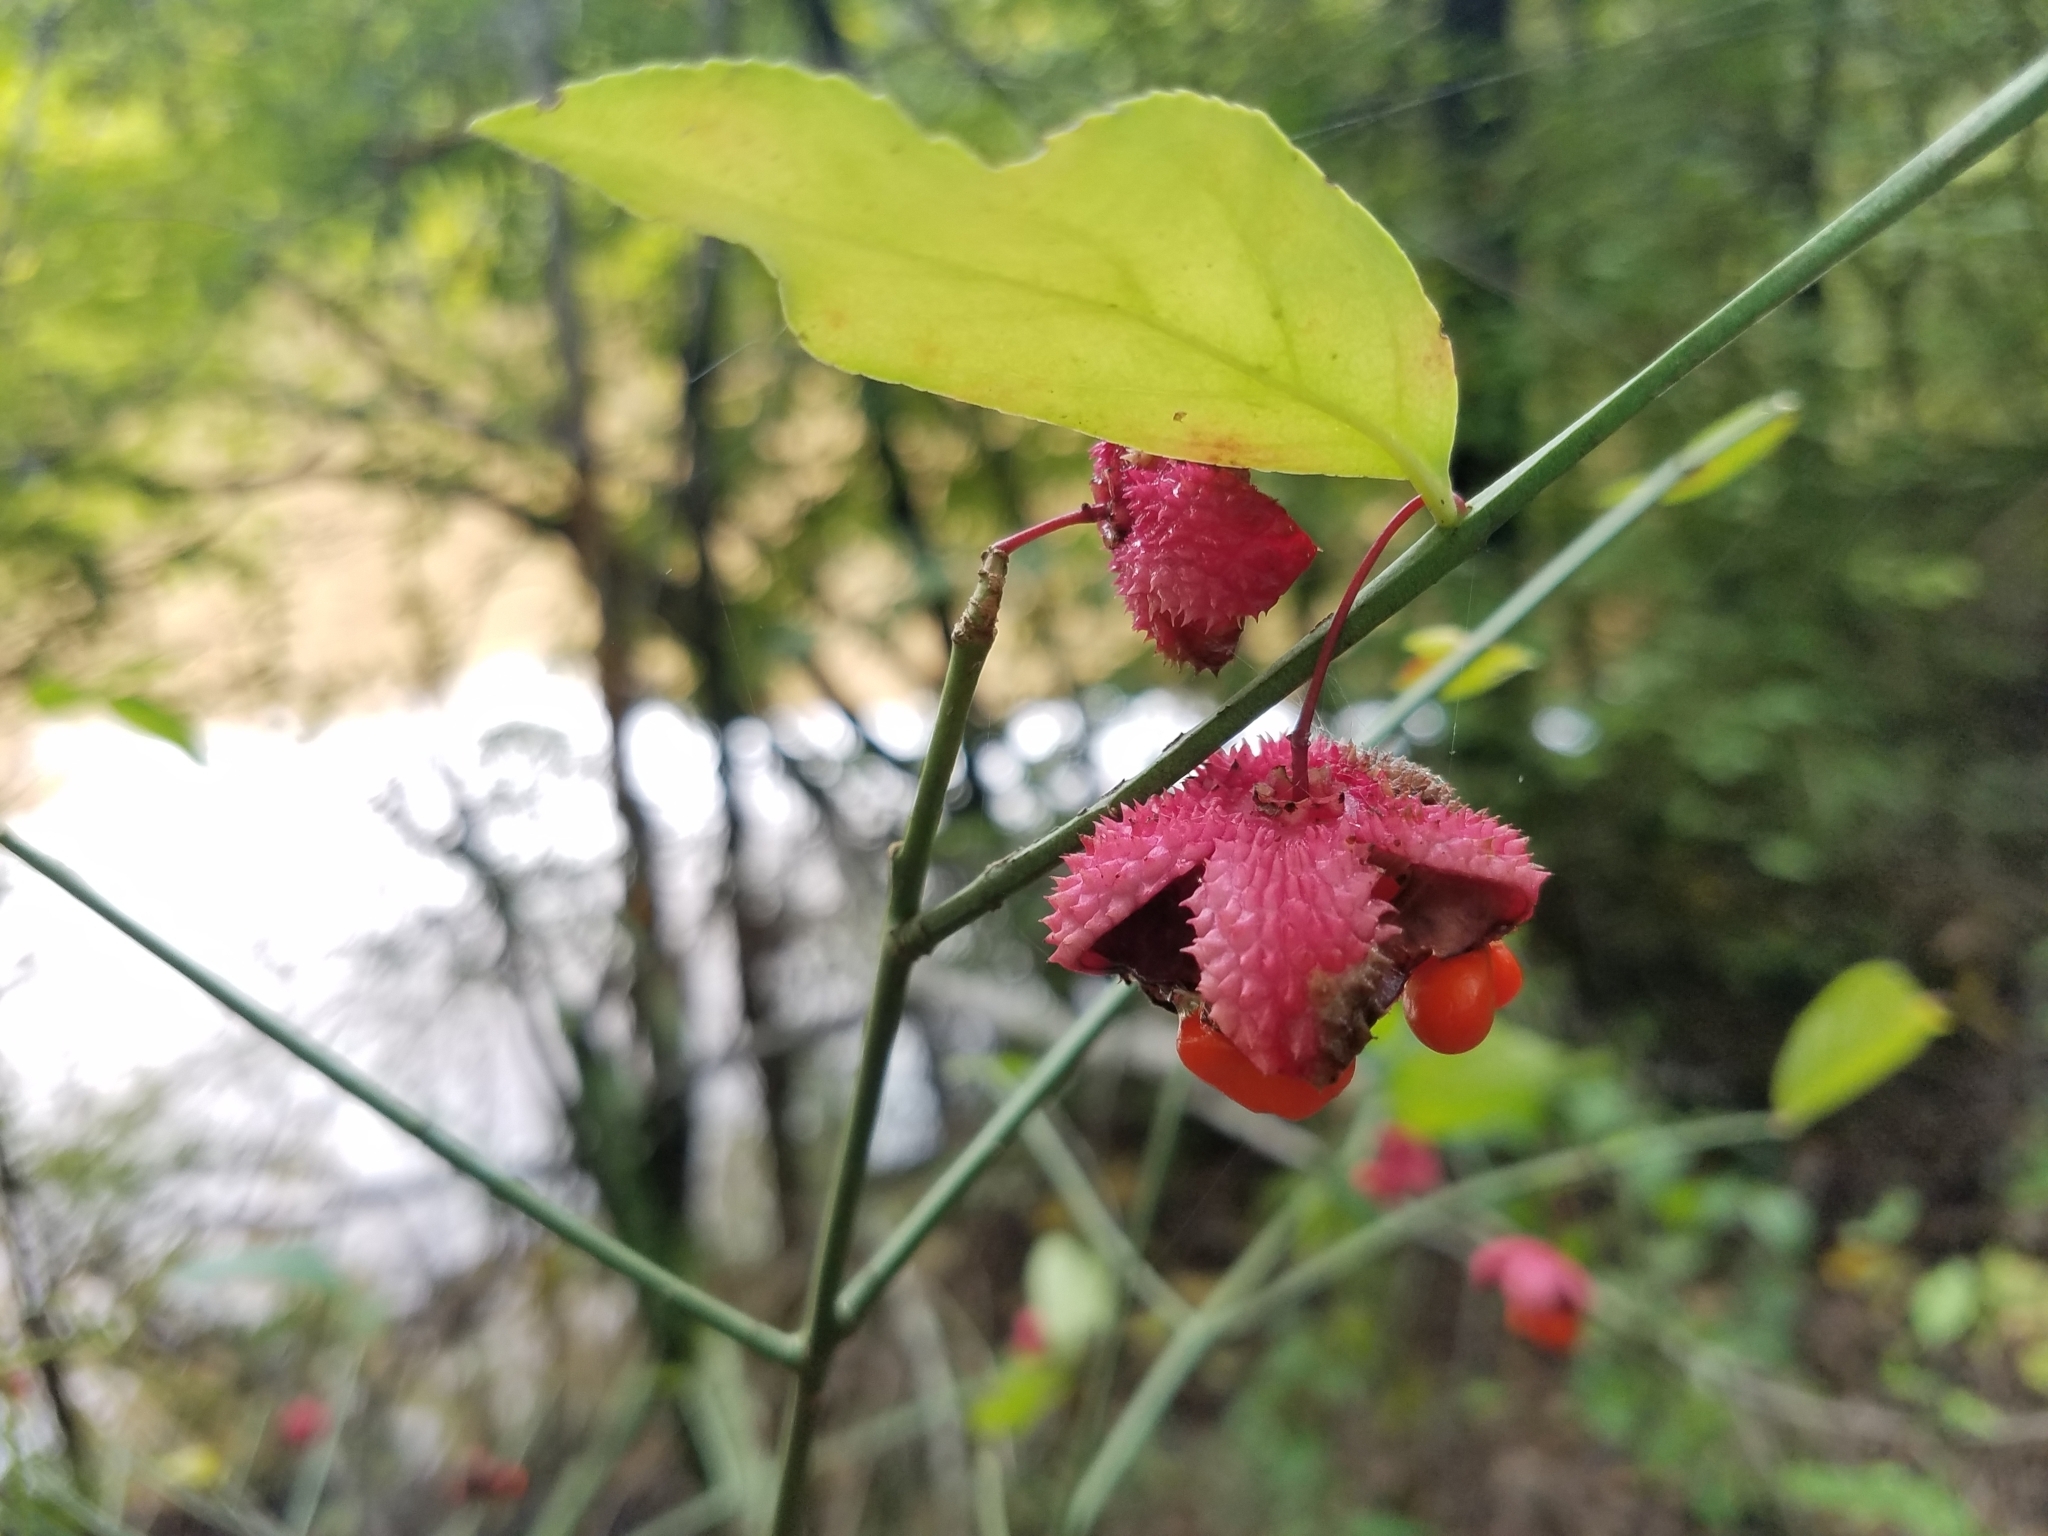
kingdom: Plantae
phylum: Tracheophyta
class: Magnoliopsida
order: Celastrales
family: Celastraceae
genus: Euonymus
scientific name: Euonymus americanus
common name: Bursting-heart
